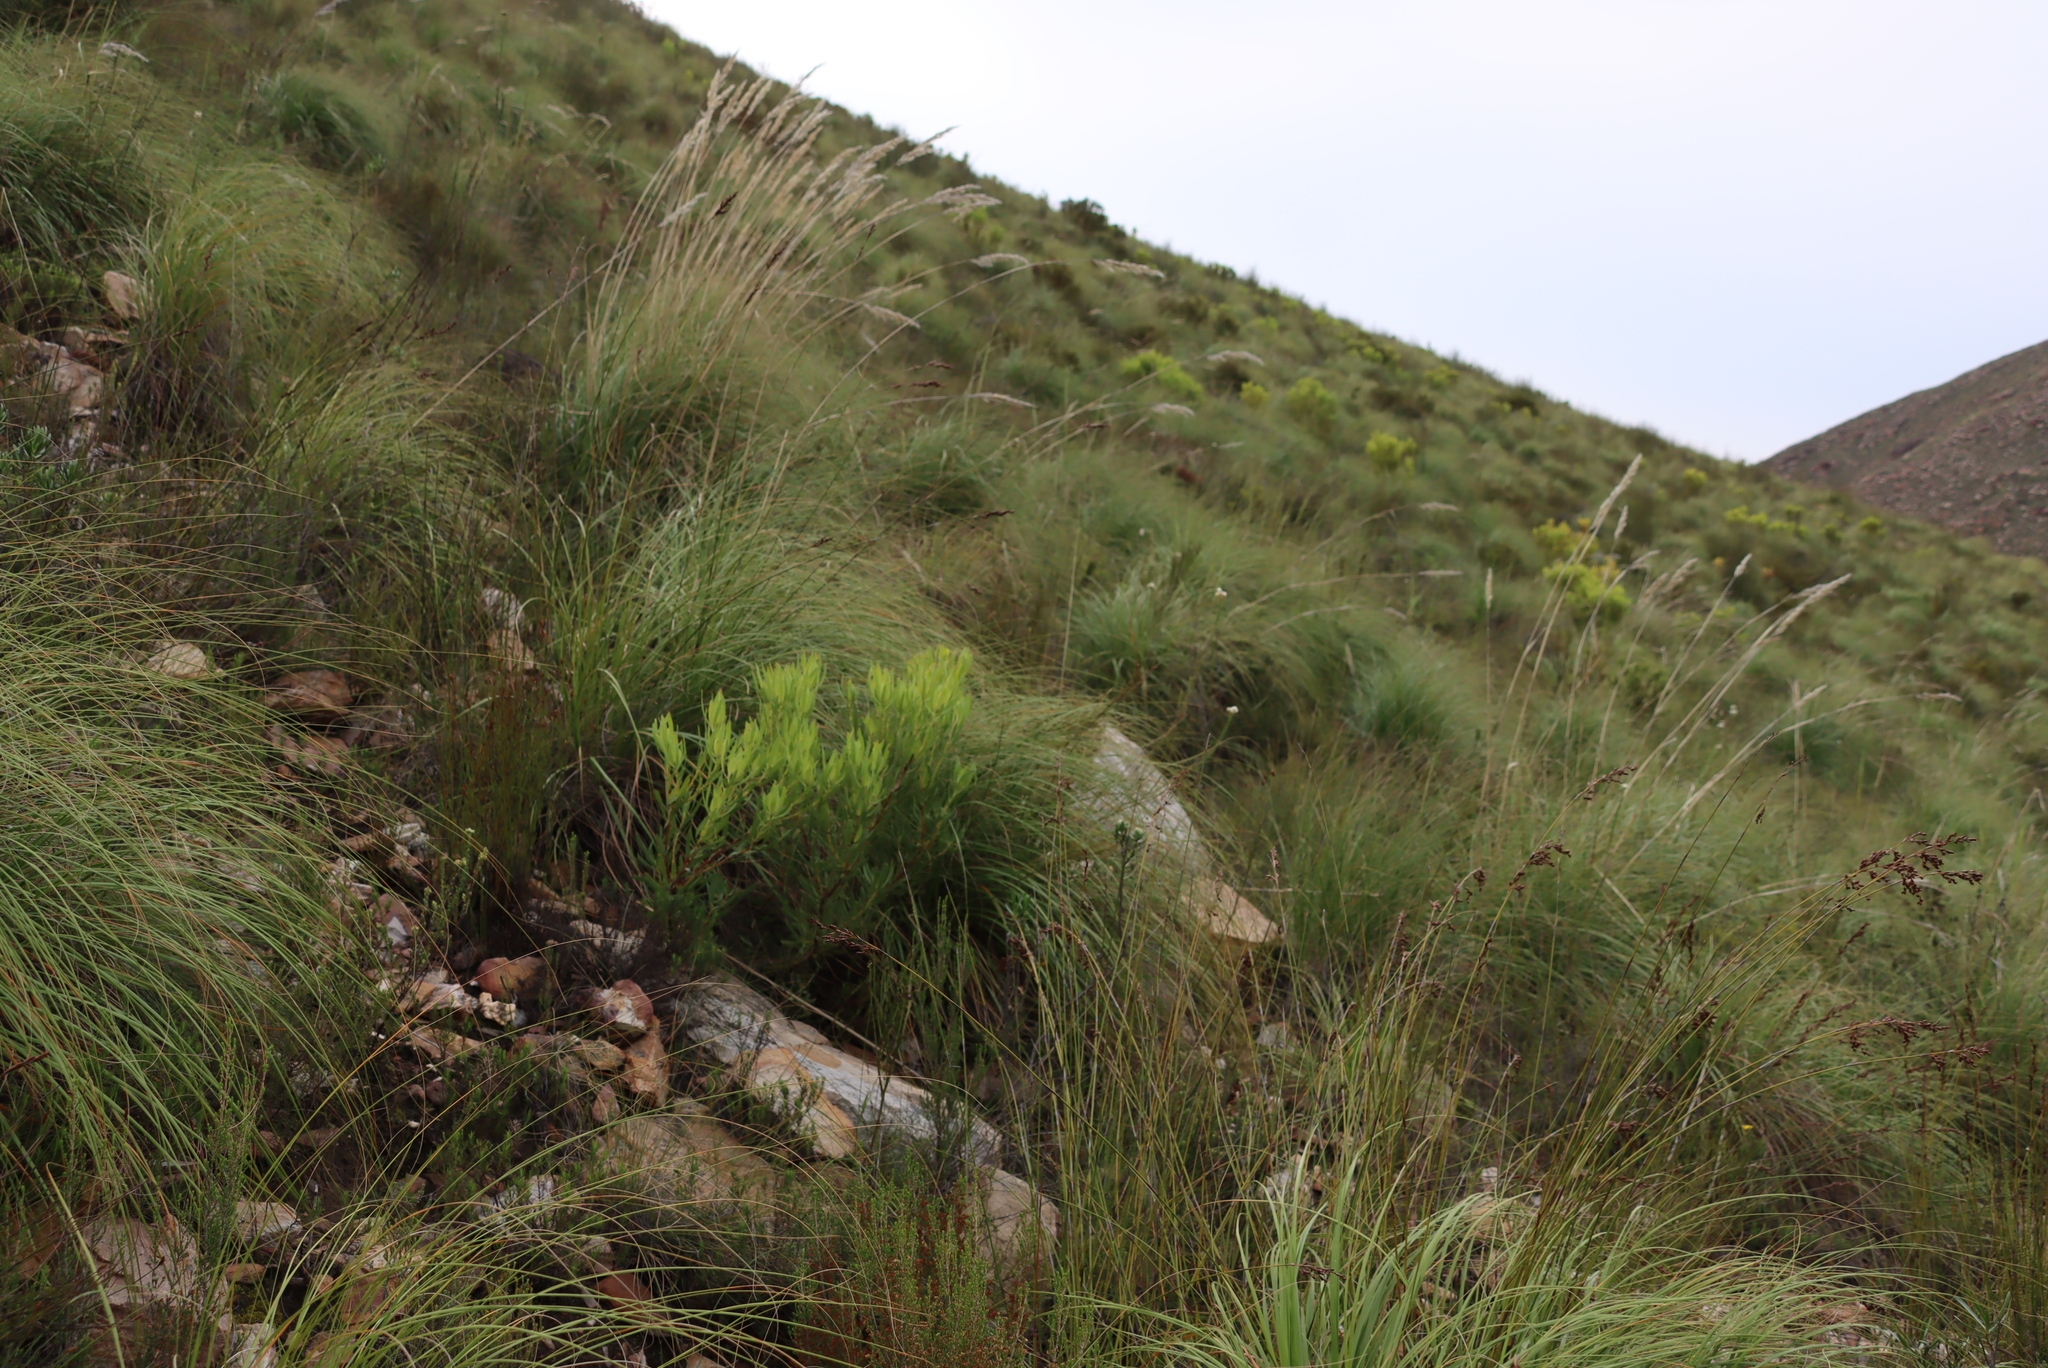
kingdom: Plantae
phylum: Tracheophyta
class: Magnoliopsida
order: Proteales
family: Proteaceae
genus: Leucadendron
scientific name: Leucadendron salignum
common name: Common sunshine conebush
